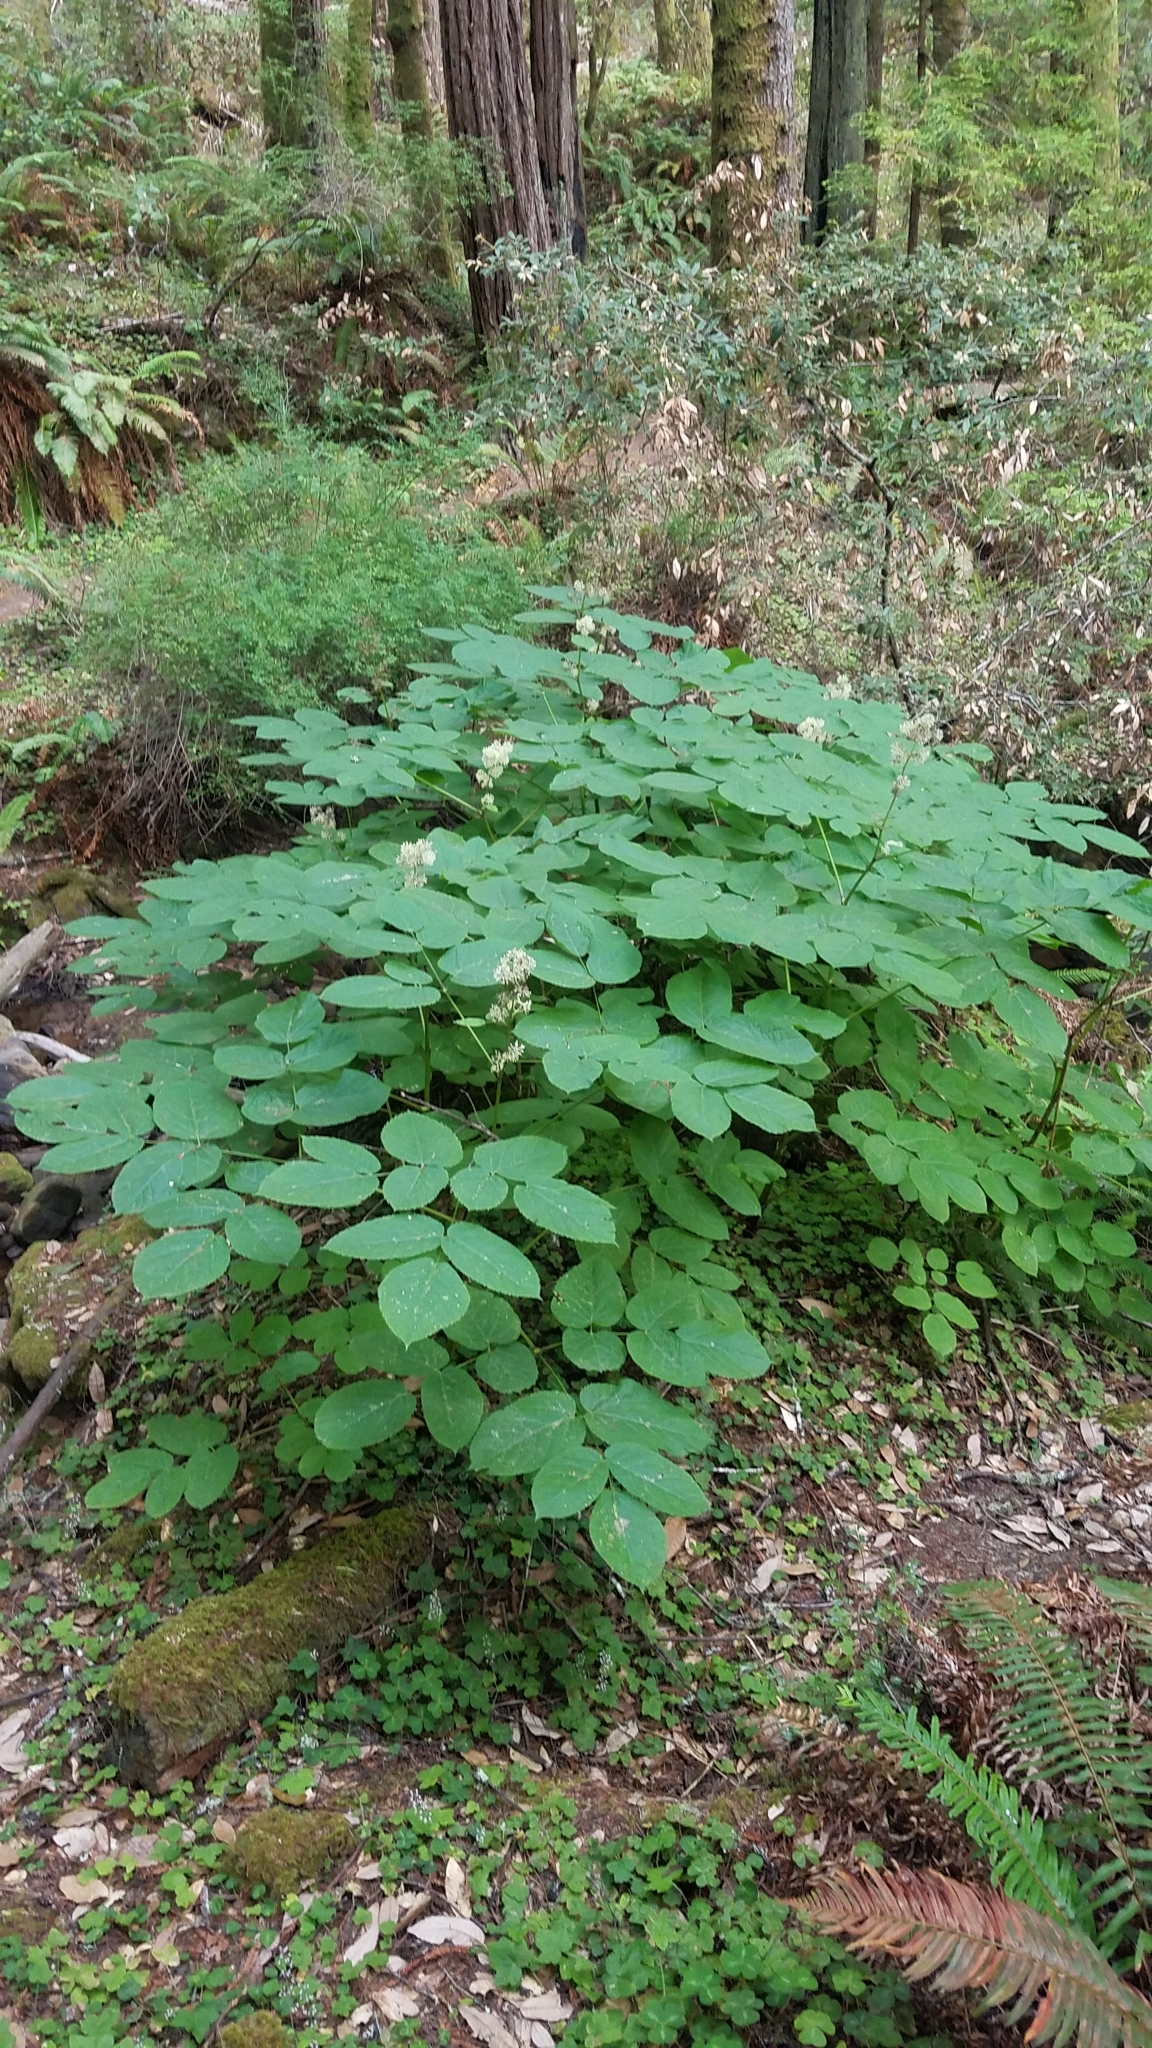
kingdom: Plantae
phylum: Tracheophyta
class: Magnoliopsida
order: Apiales
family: Araliaceae
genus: Aralia
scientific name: Aralia californica
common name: California-ginseng
